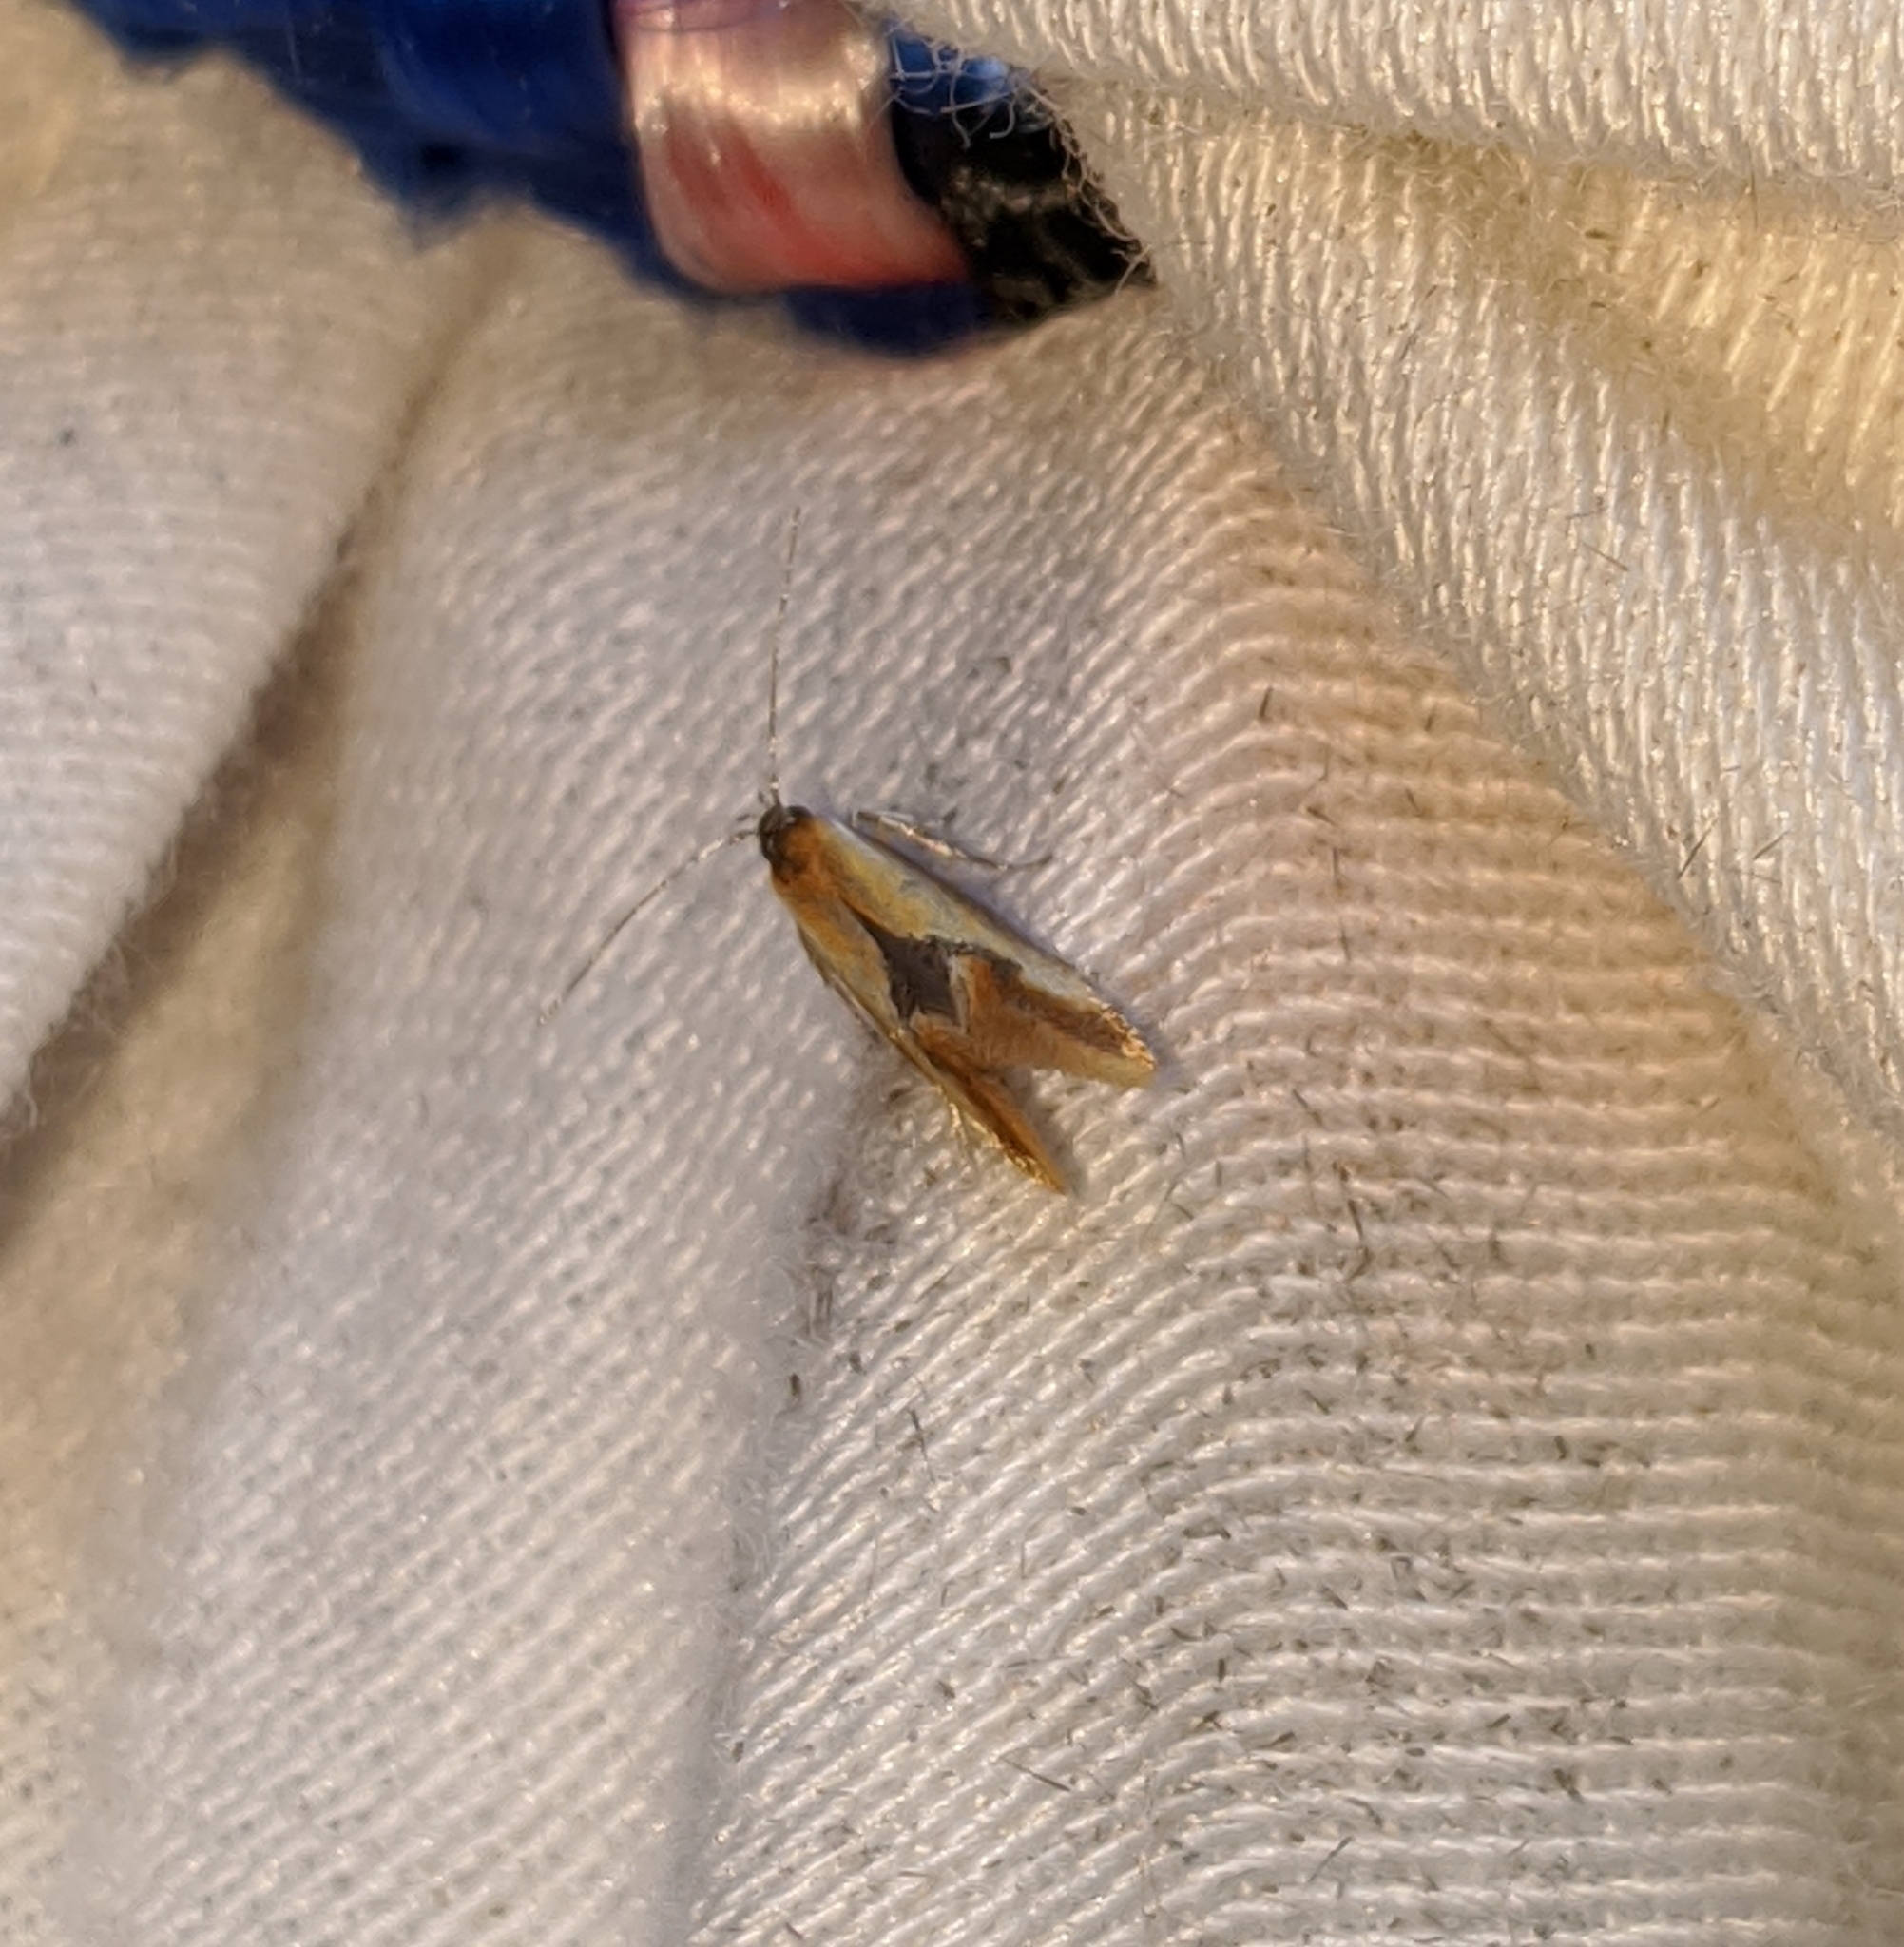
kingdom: Animalia
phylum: Arthropoda
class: Insecta
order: Lepidoptera
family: Oecophoridae
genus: Batia
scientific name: Batia lunaris
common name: Moth
